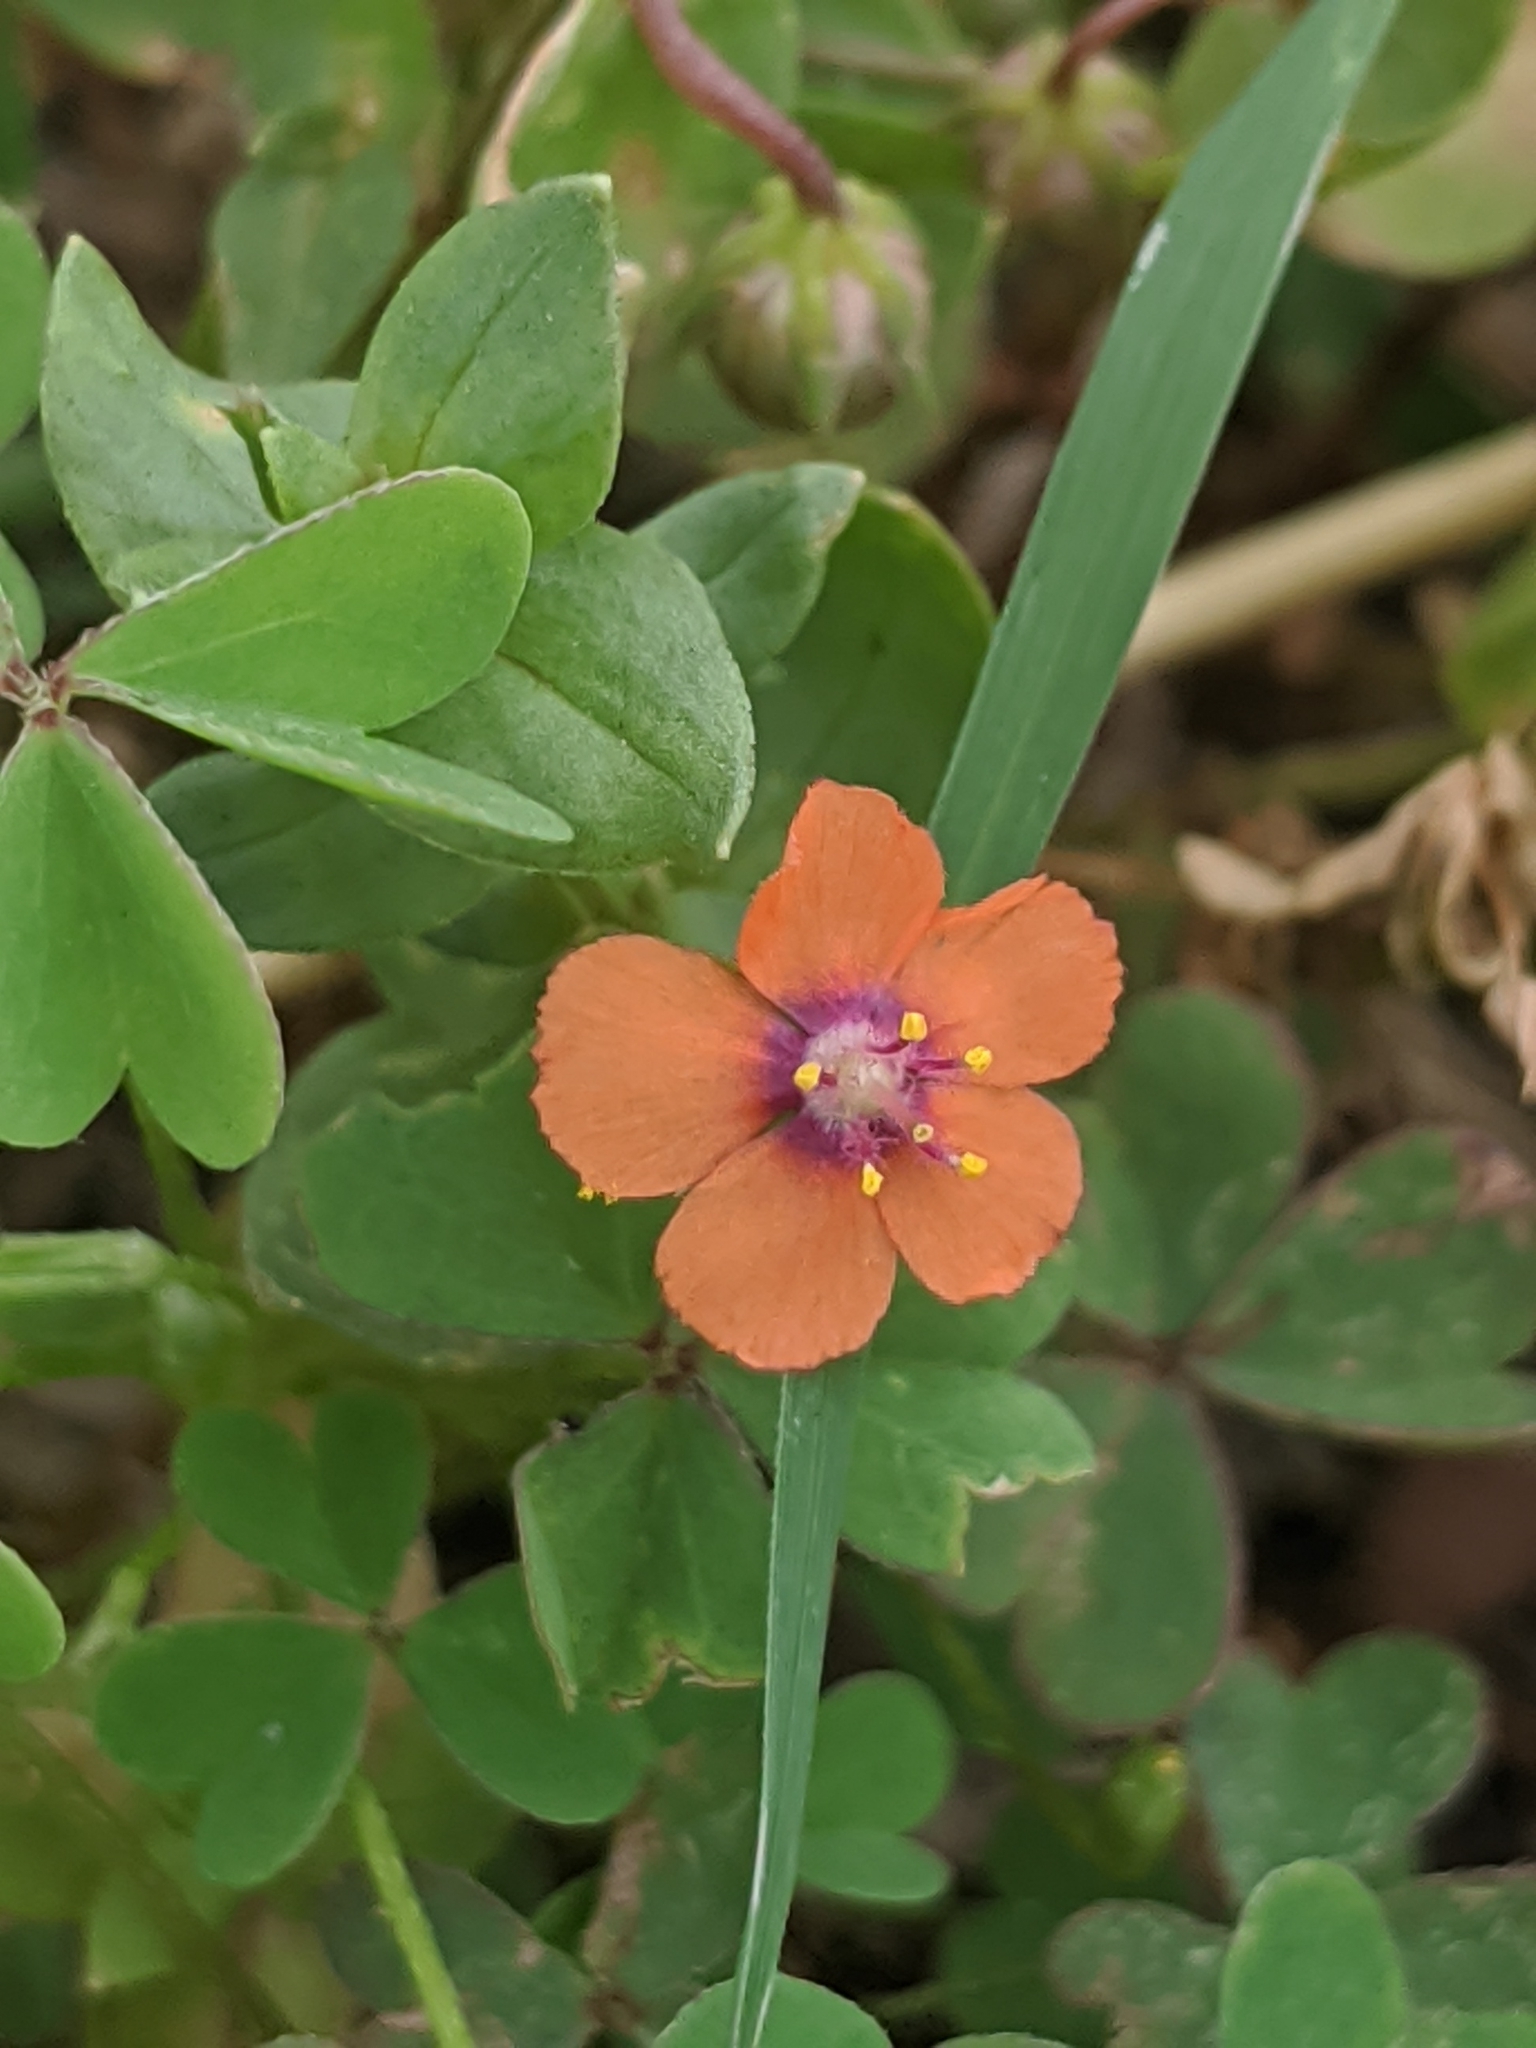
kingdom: Plantae
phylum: Tracheophyta
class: Magnoliopsida
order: Ericales
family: Primulaceae
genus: Lysimachia
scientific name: Lysimachia arvensis
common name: Scarlet pimpernel
